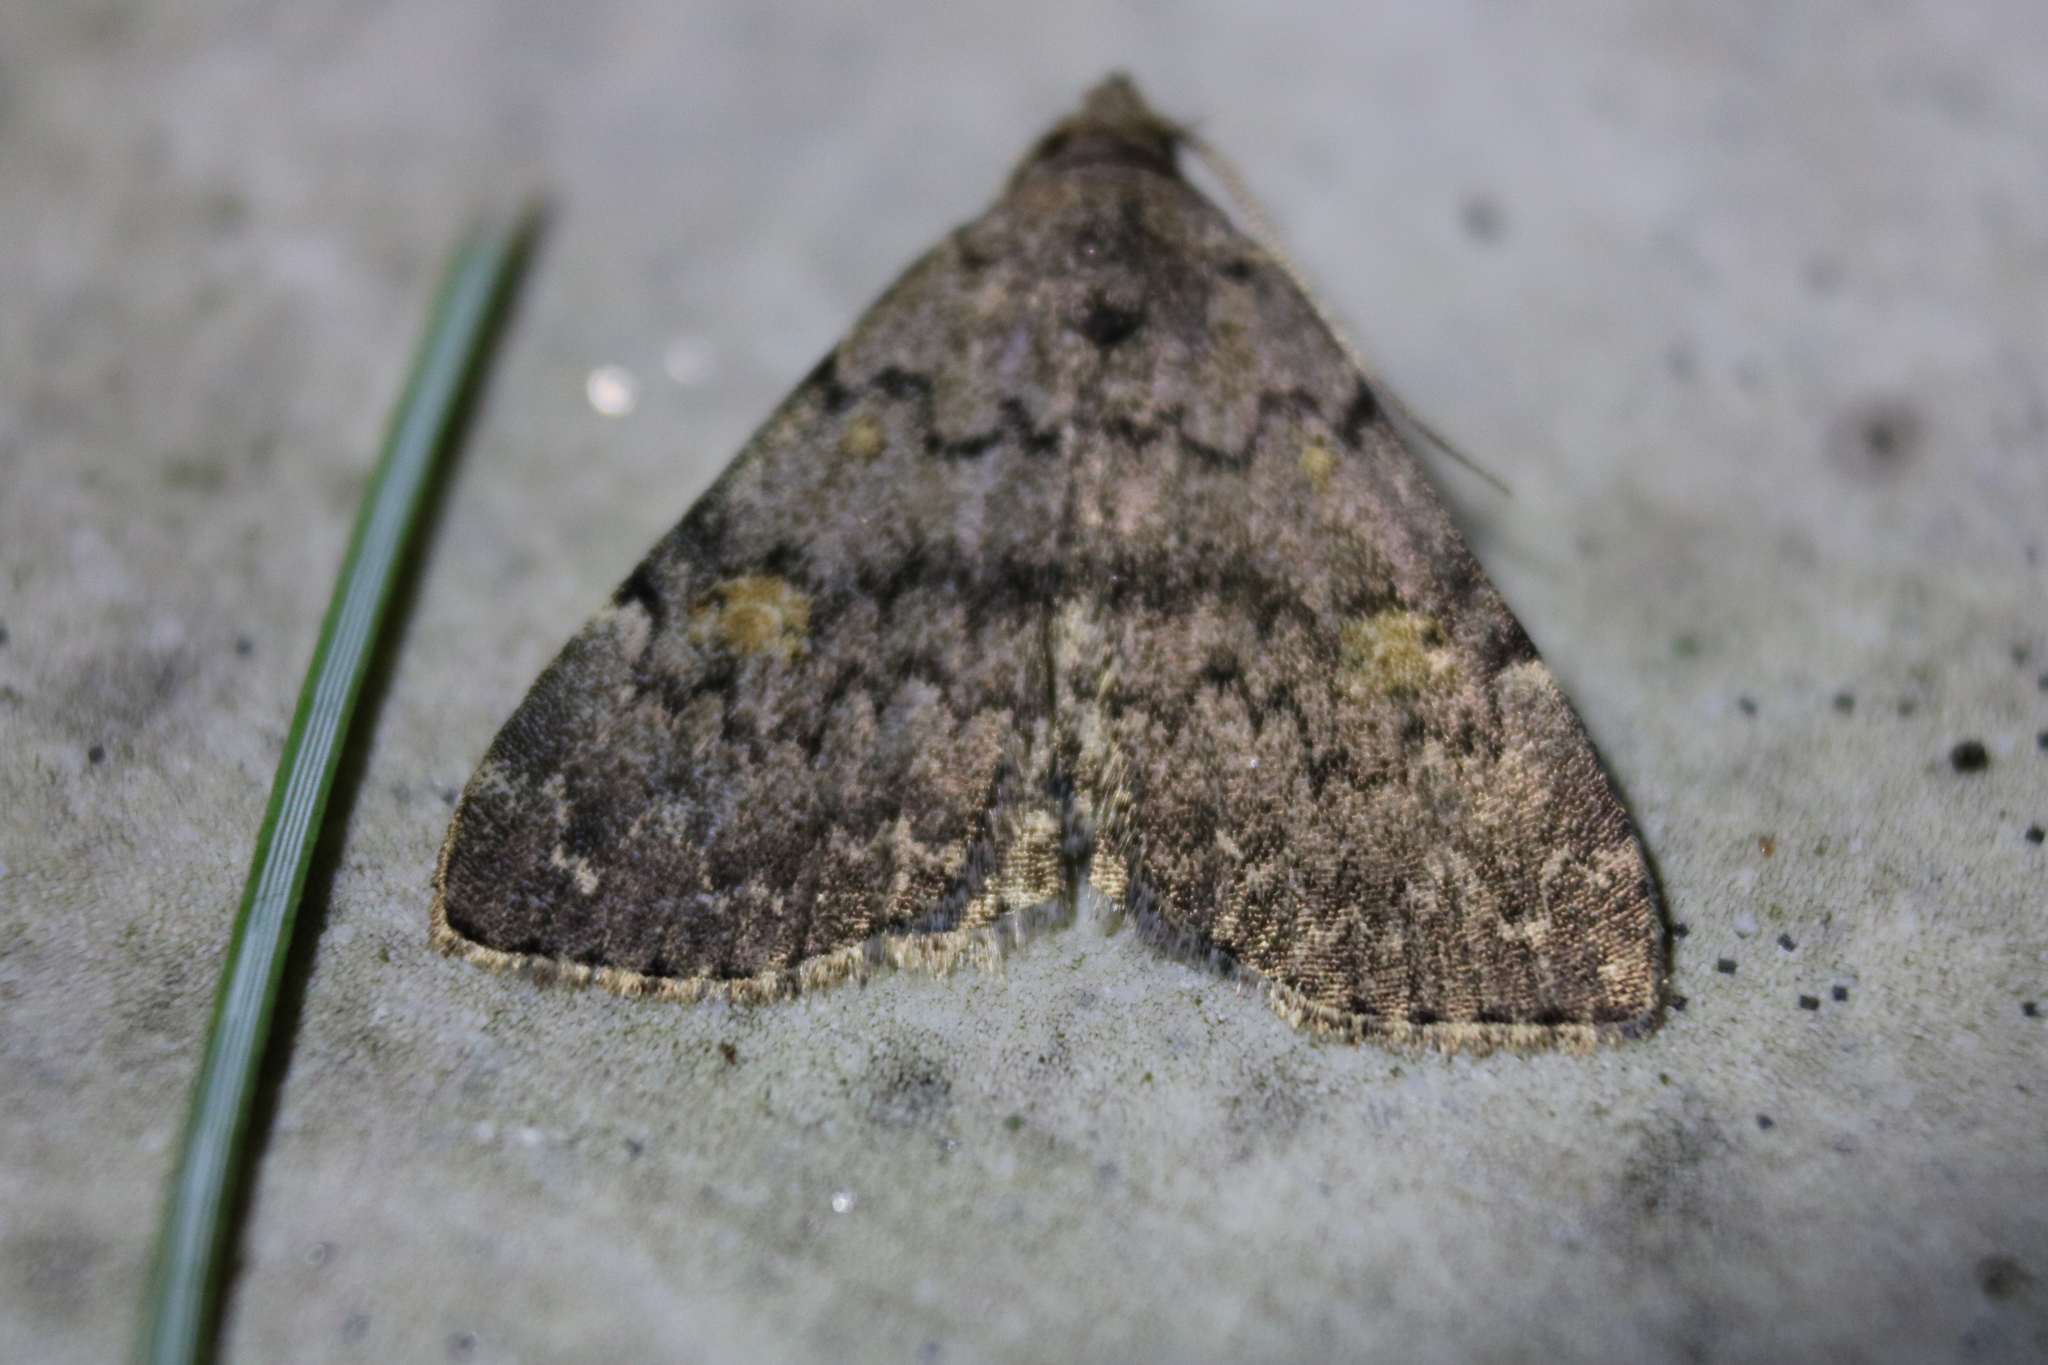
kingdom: Animalia
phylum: Arthropoda
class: Insecta
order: Lepidoptera
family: Erebidae
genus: Idia
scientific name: Idia aemula
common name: Common idia moth
